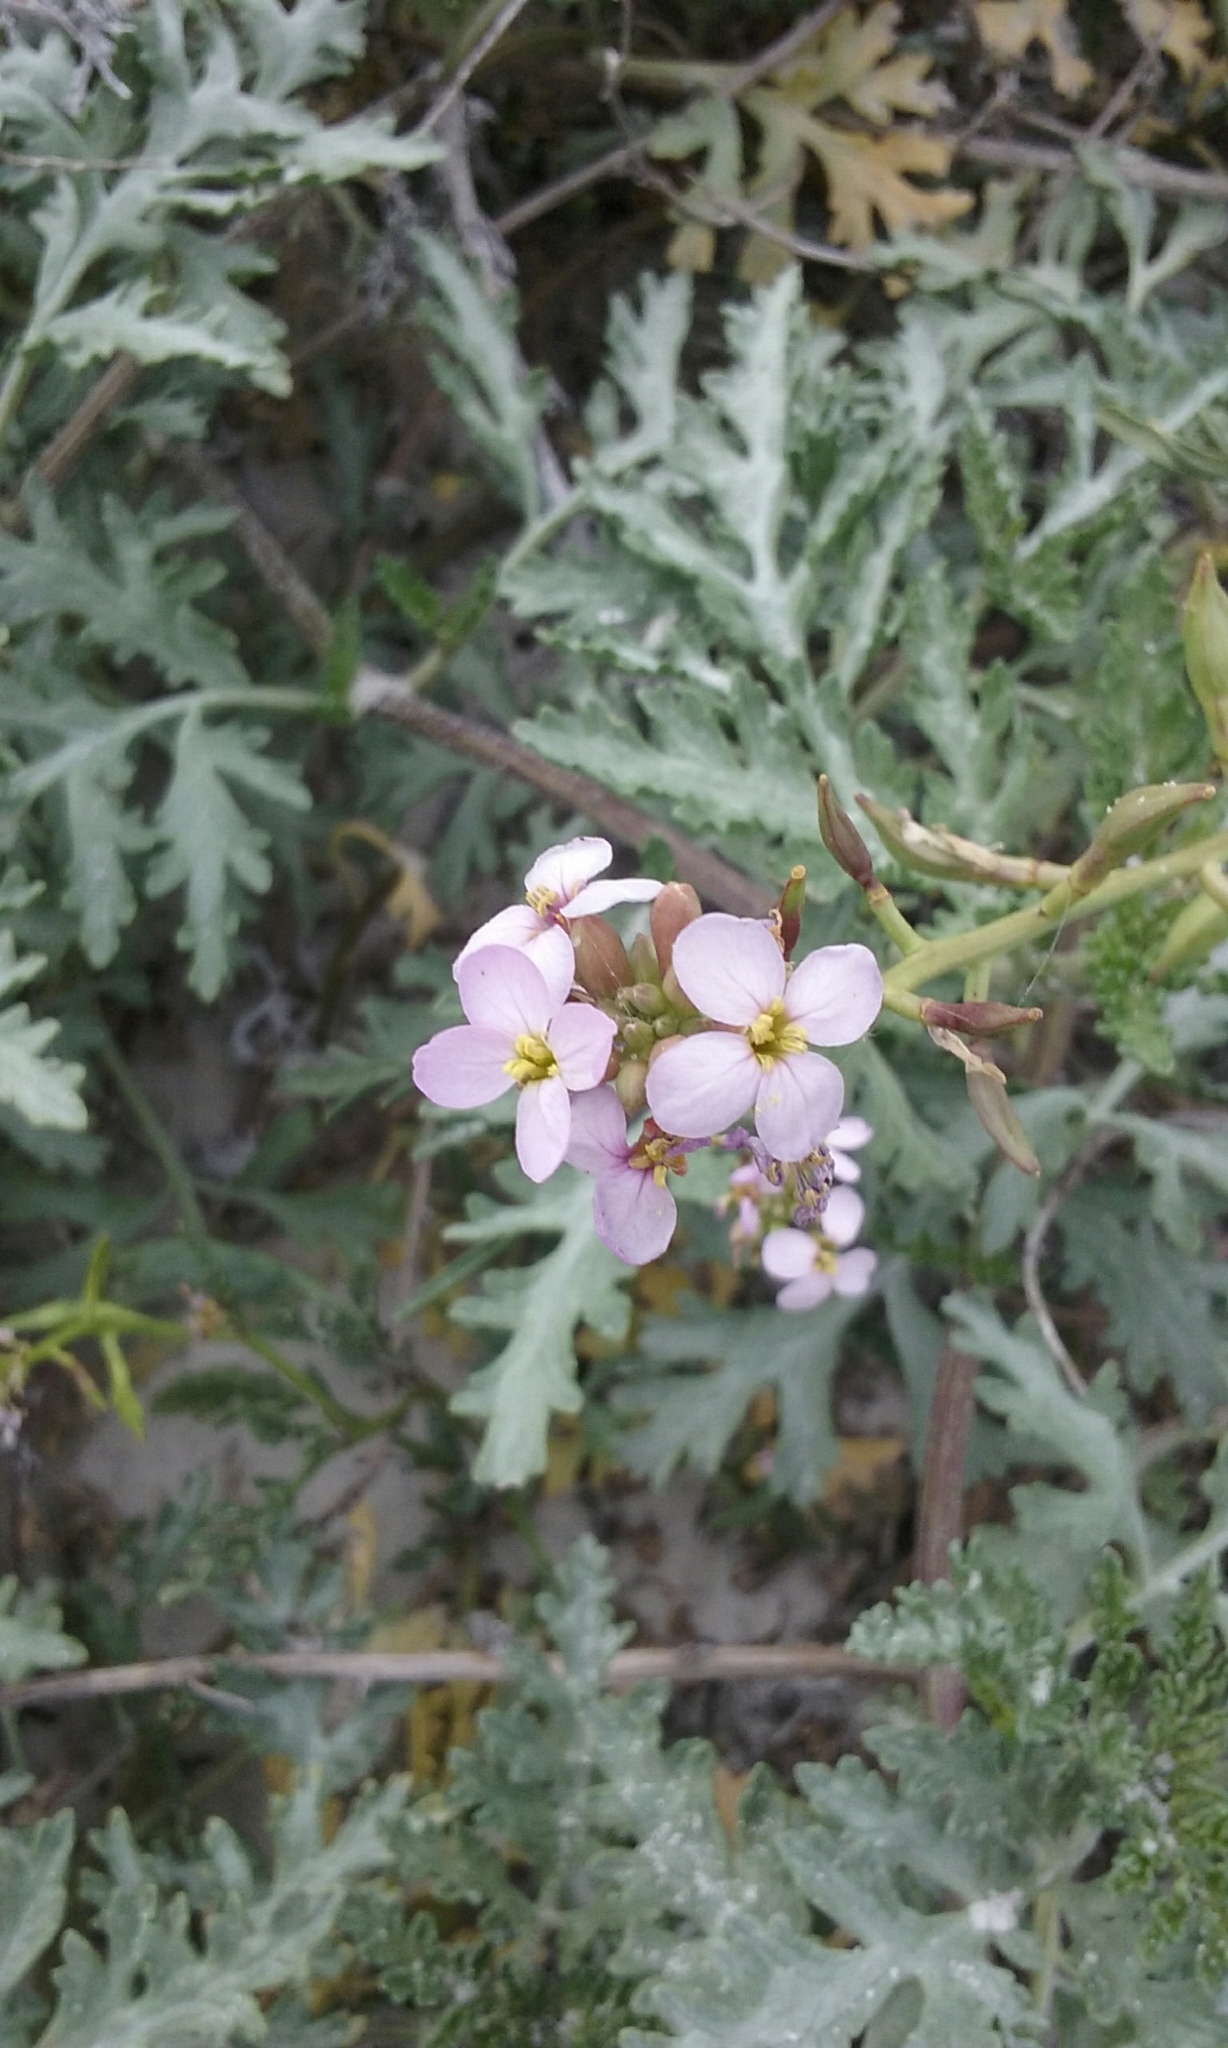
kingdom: Plantae
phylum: Tracheophyta
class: Magnoliopsida
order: Brassicales
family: Brassicaceae
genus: Cakile
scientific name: Cakile maritima
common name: Sea rocket
